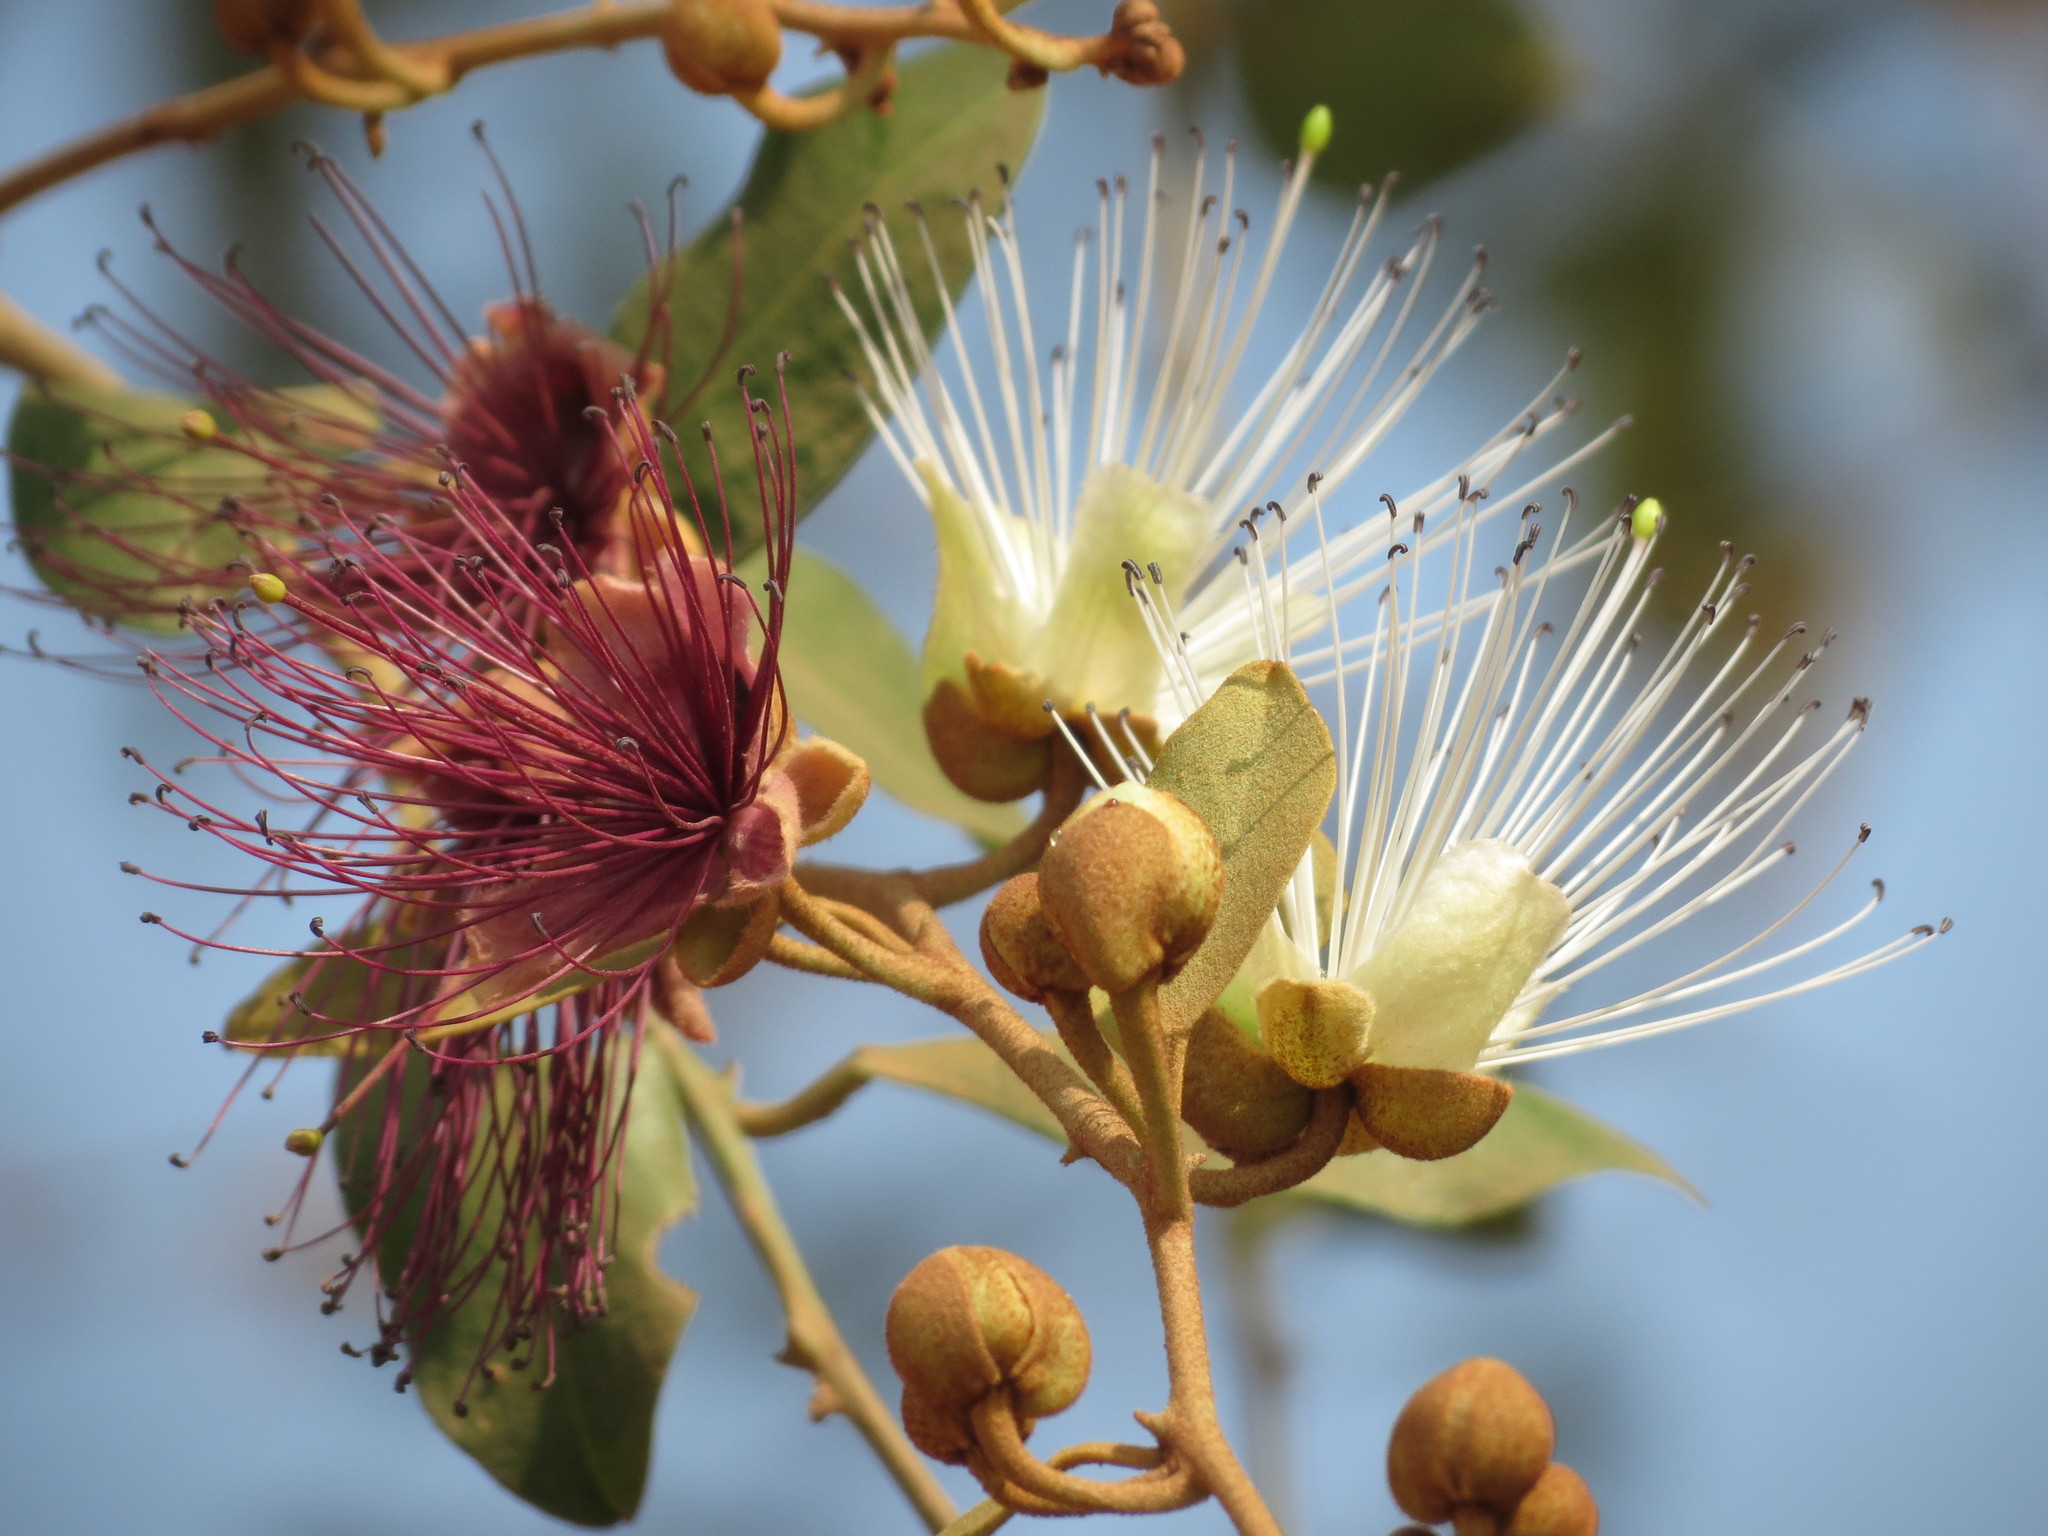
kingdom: Plantae
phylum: Tracheophyta
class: Magnoliopsida
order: Brassicales
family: Capparaceae
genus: Capparis
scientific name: Capparis zeylanica
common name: Ceylon caper
